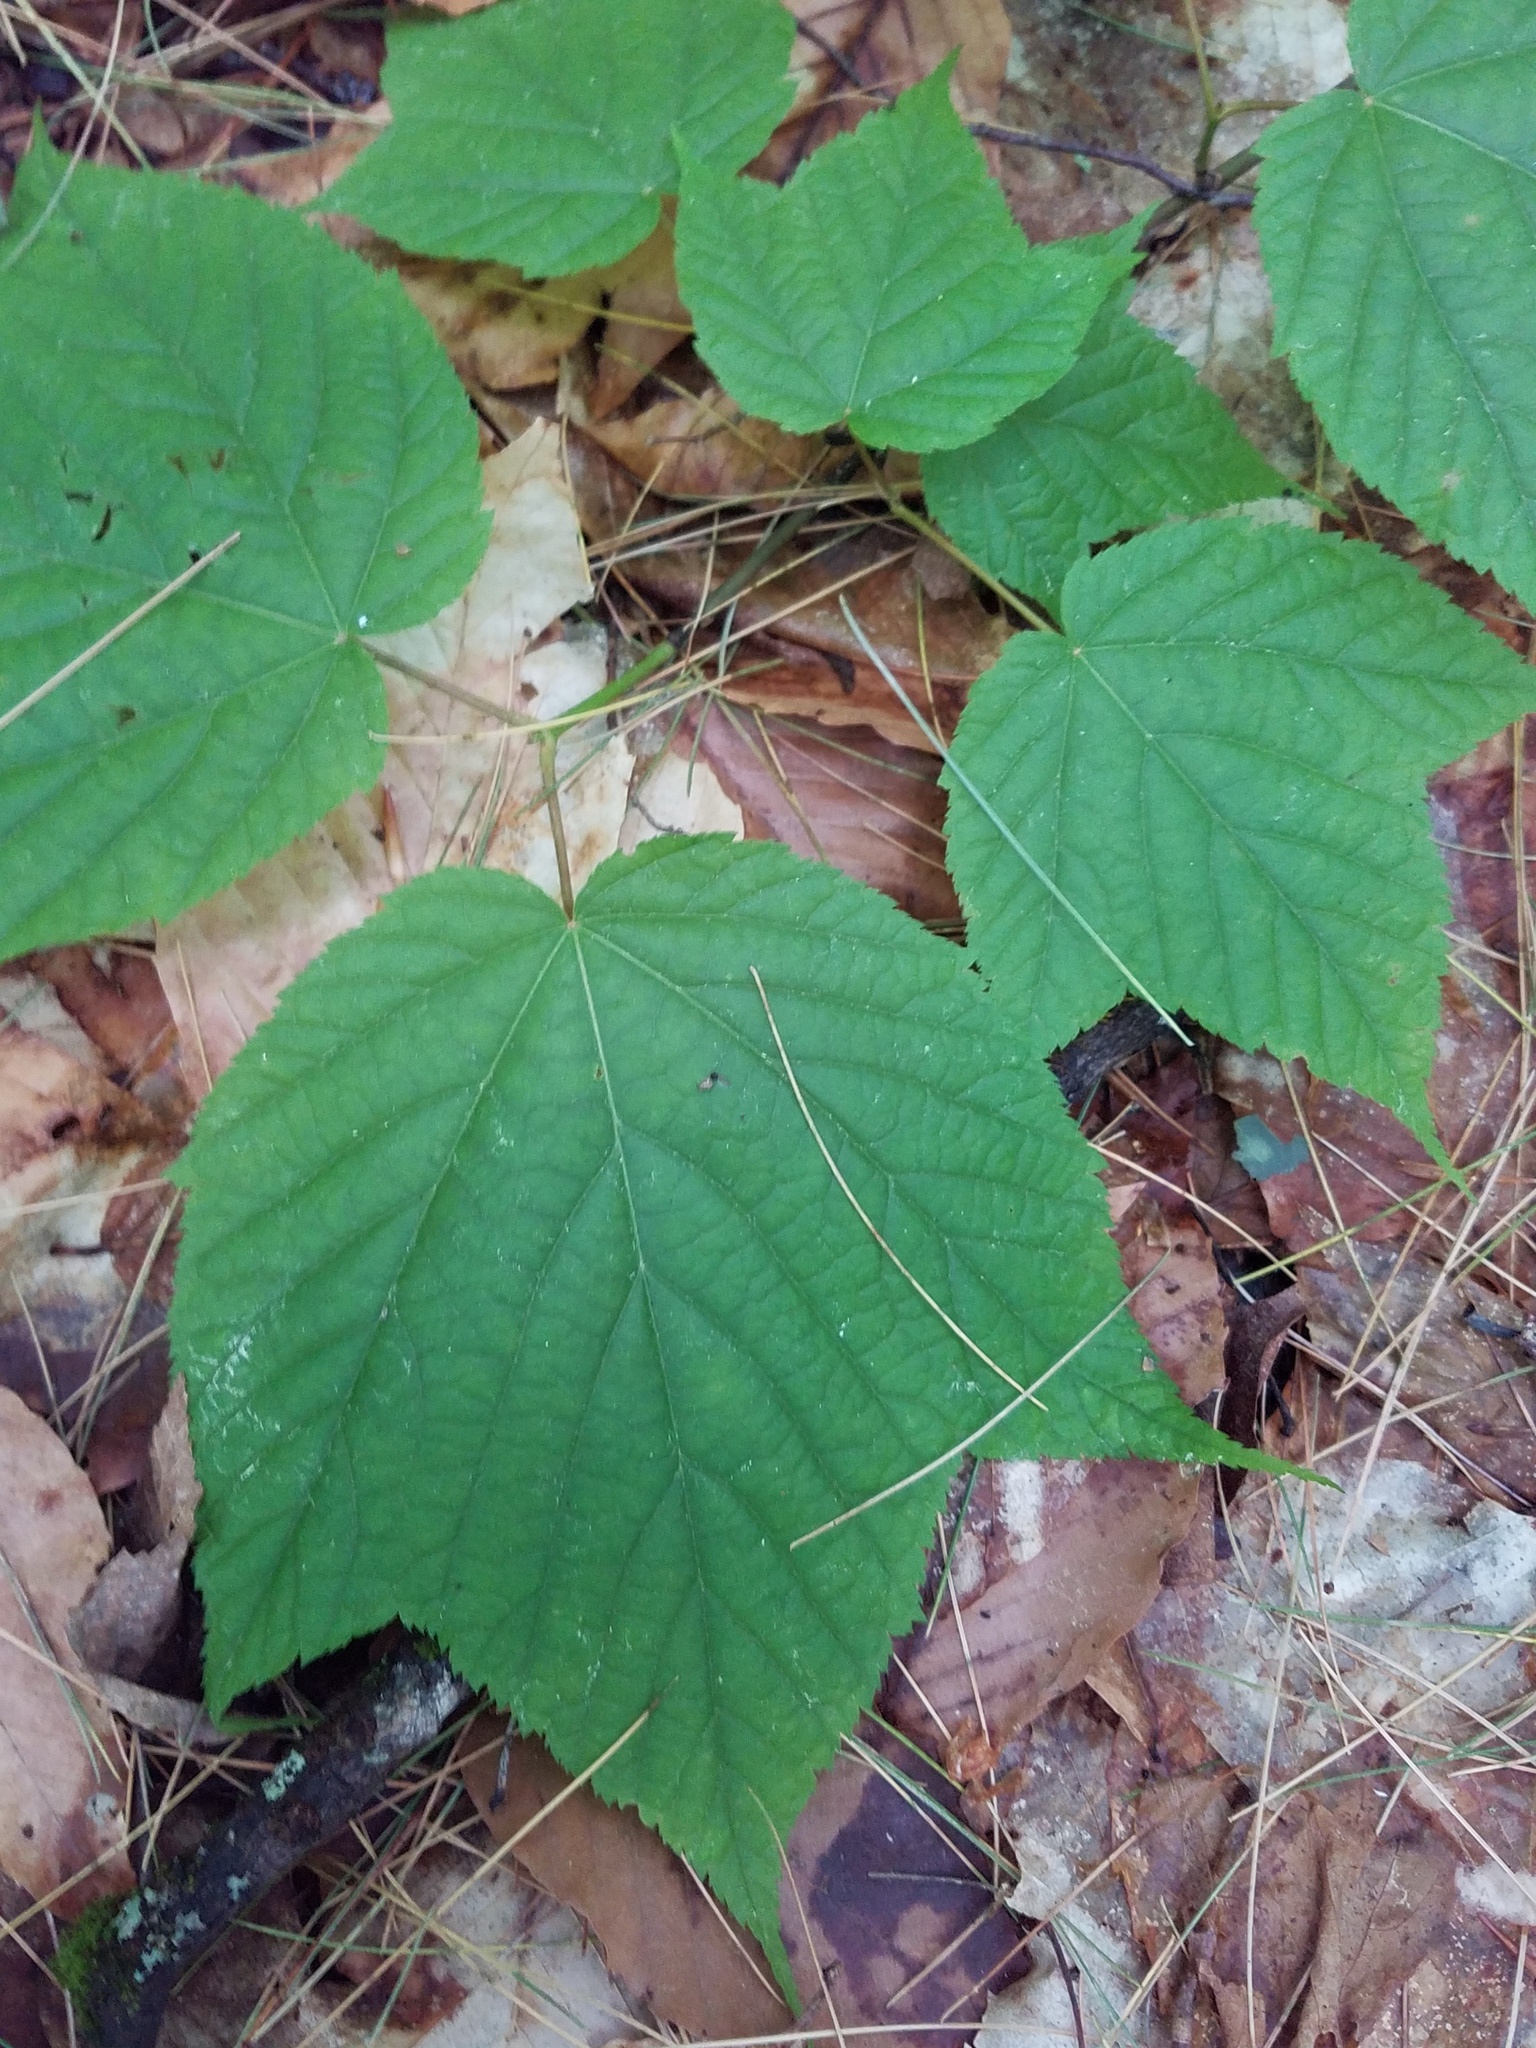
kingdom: Plantae
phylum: Tracheophyta
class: Magnoliopsida
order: Sapindales
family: Sapindaceae
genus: Acer
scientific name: Acer pensylvanicum
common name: Moosewood
